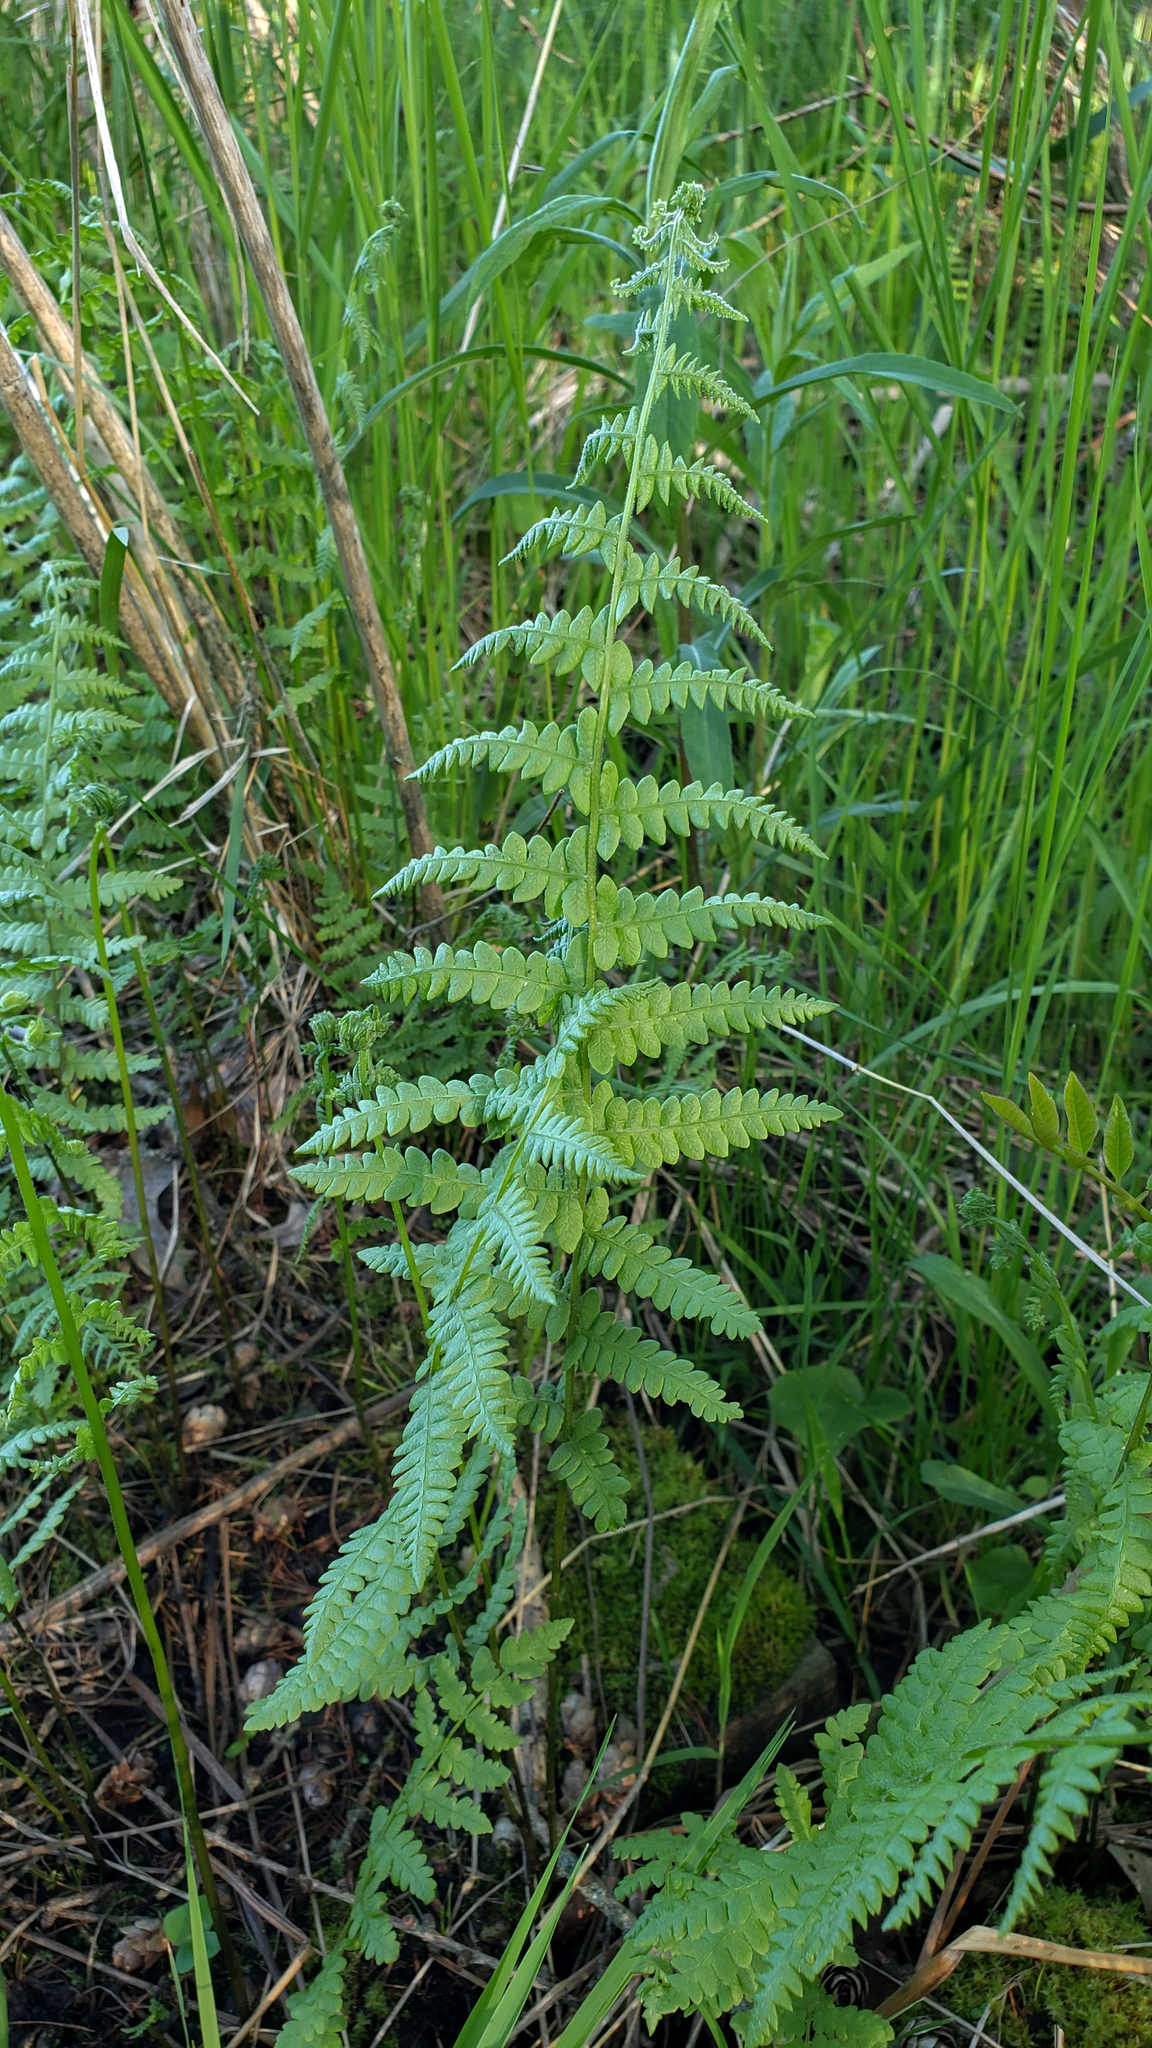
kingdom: Plantae
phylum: Tracheophyta
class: Polypodiopsida
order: Polypodiales
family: Thelypteridaceae
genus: Thelypteris
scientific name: Thelypteris palustris
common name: Marsh fern
